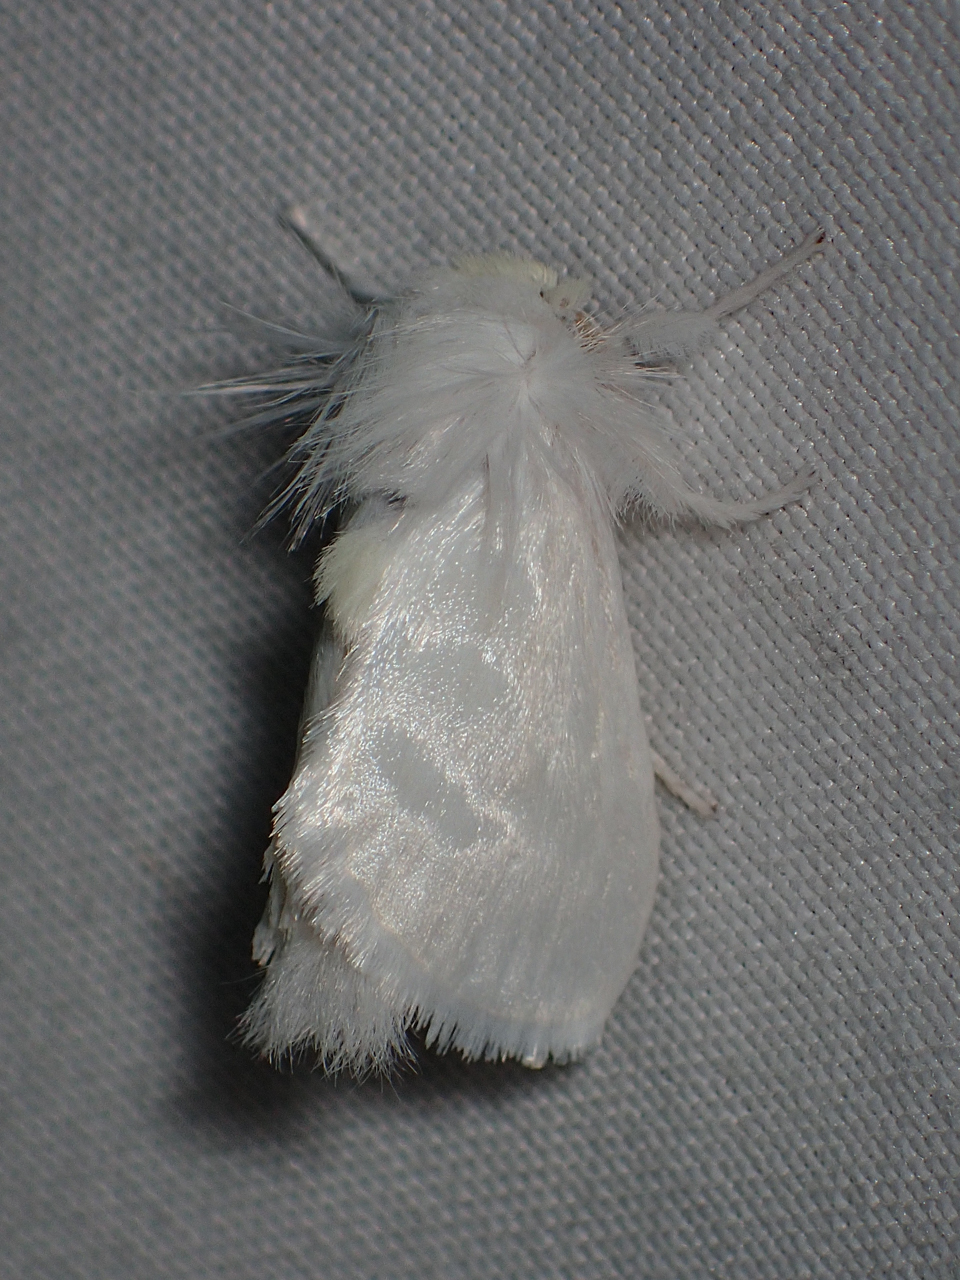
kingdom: Animalia
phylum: Arthropoda
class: Insecta
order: Lepidoptera
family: Megalopygidae
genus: Norape
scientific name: Norape cretata
